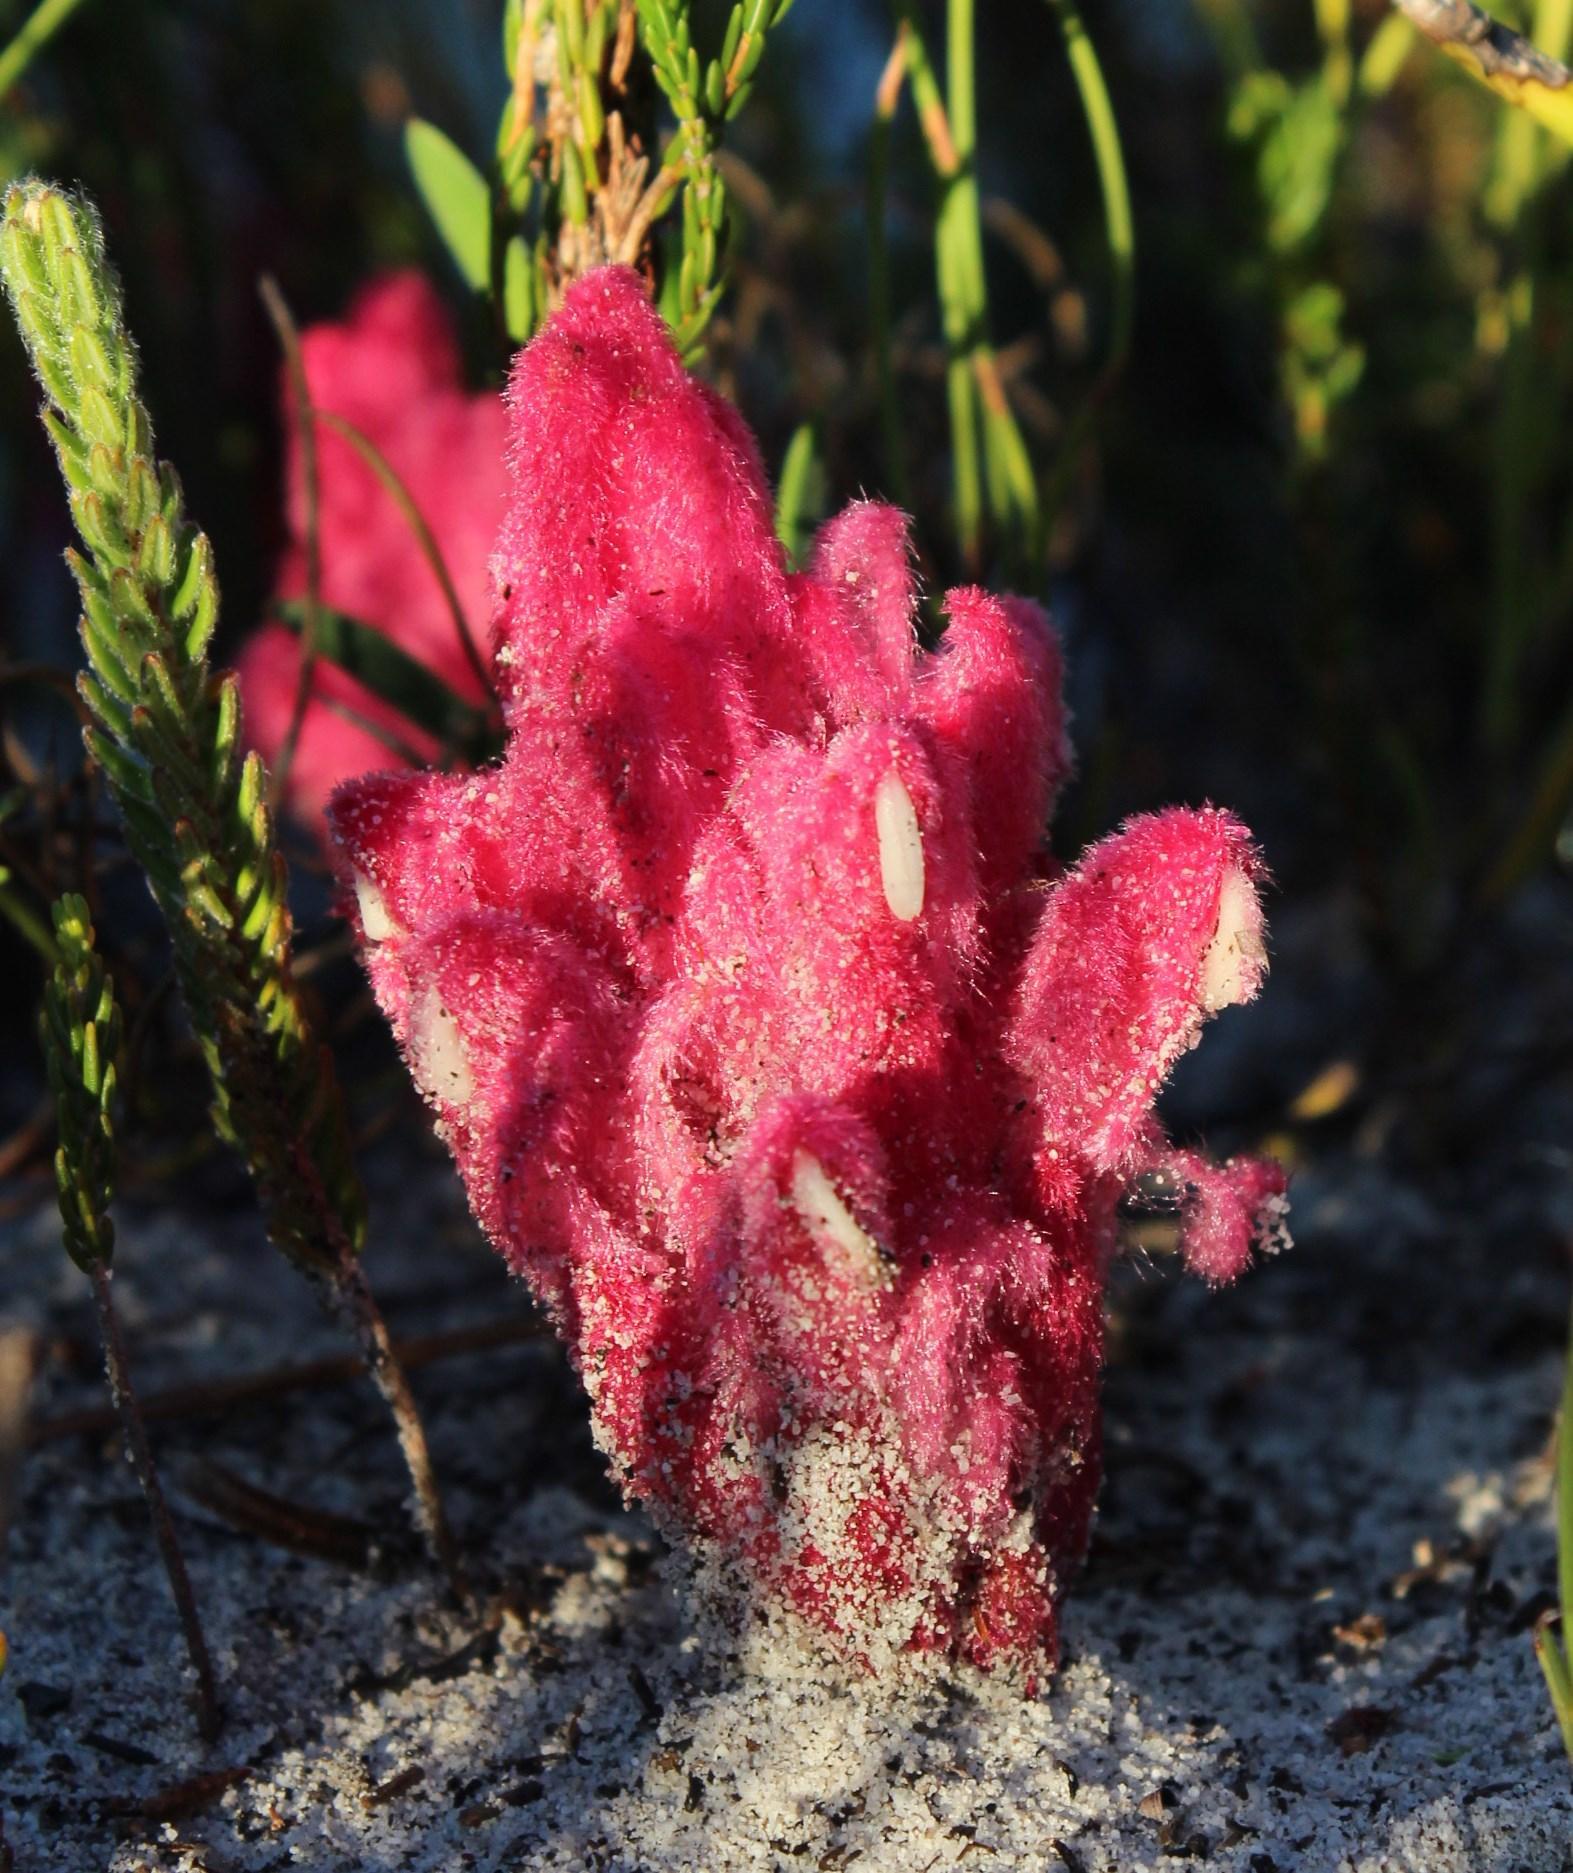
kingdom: Plantae
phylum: Tracheophyta
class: Magnoliopsida
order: Lamiales
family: Orobanchaceae
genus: Hyobanche
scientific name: Hyobanche sanguinea
